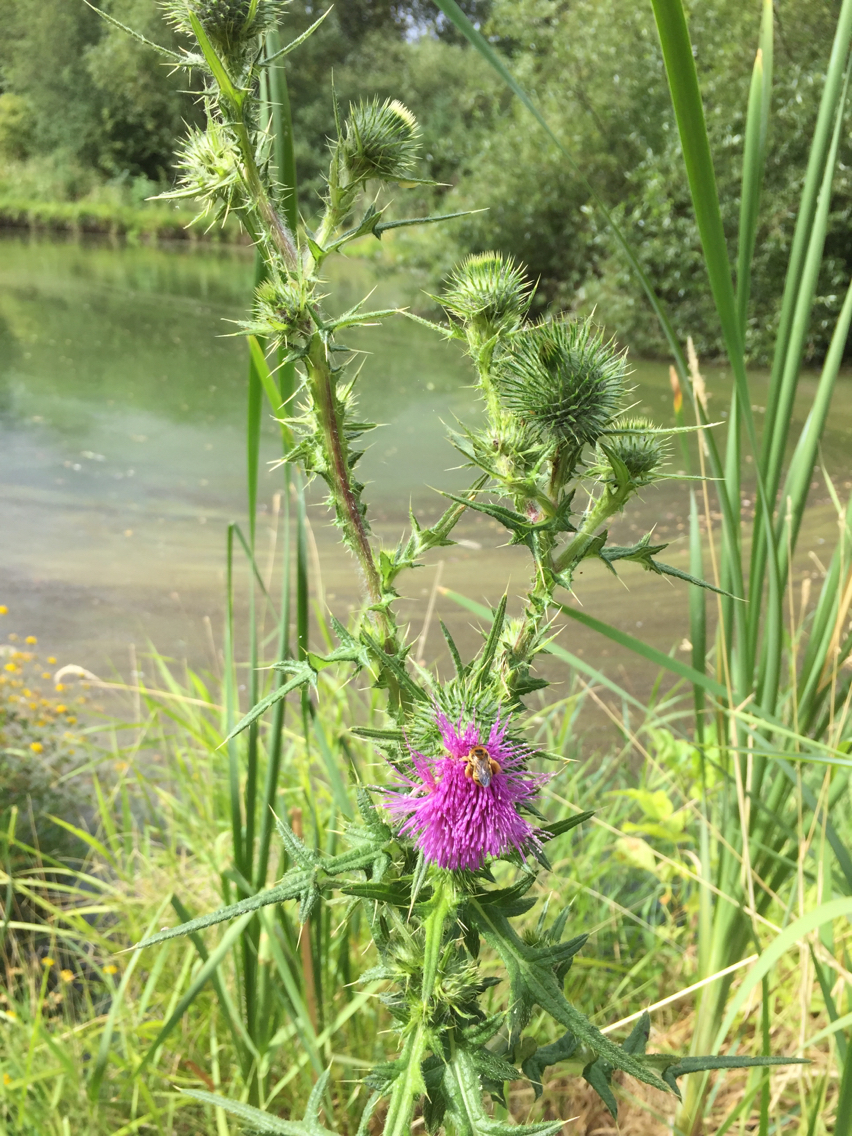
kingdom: Plantae
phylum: Tracheophyta
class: Magnoliopsida
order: Asterales
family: Asteraceae
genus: Cirsium
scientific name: Cirsium vulgare
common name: Bull thistle
